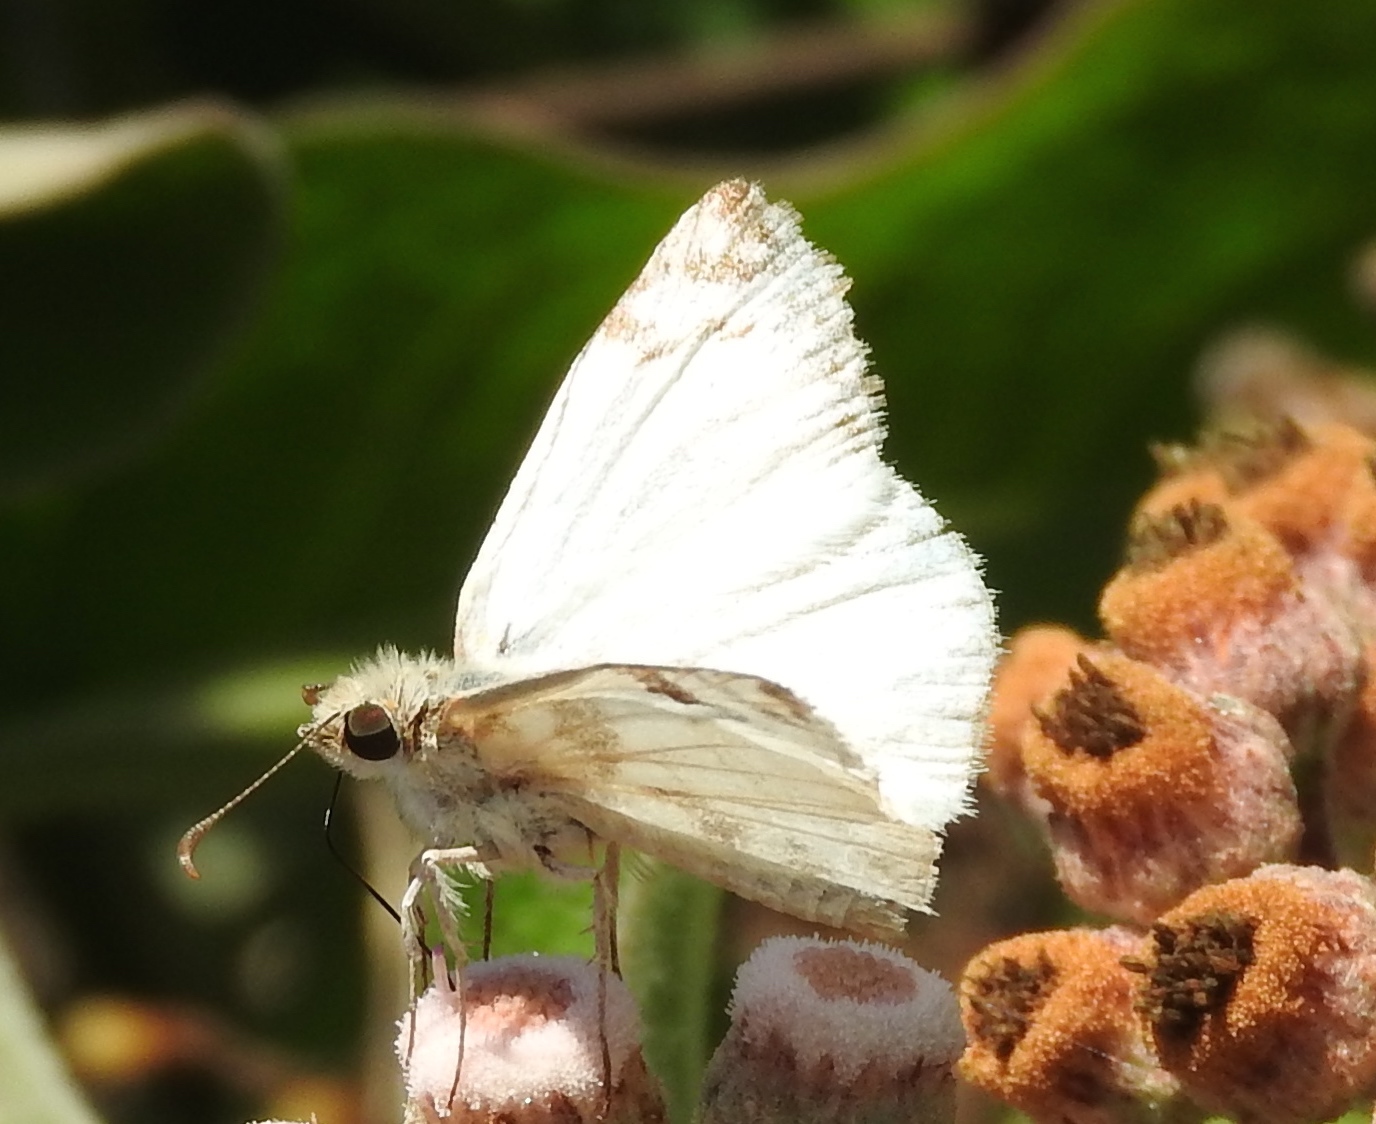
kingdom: Animalia
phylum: Arthropoda
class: Insecta
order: Lepidoptera
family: Hesperiidae
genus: Heliopetes
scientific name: Heliopetes
